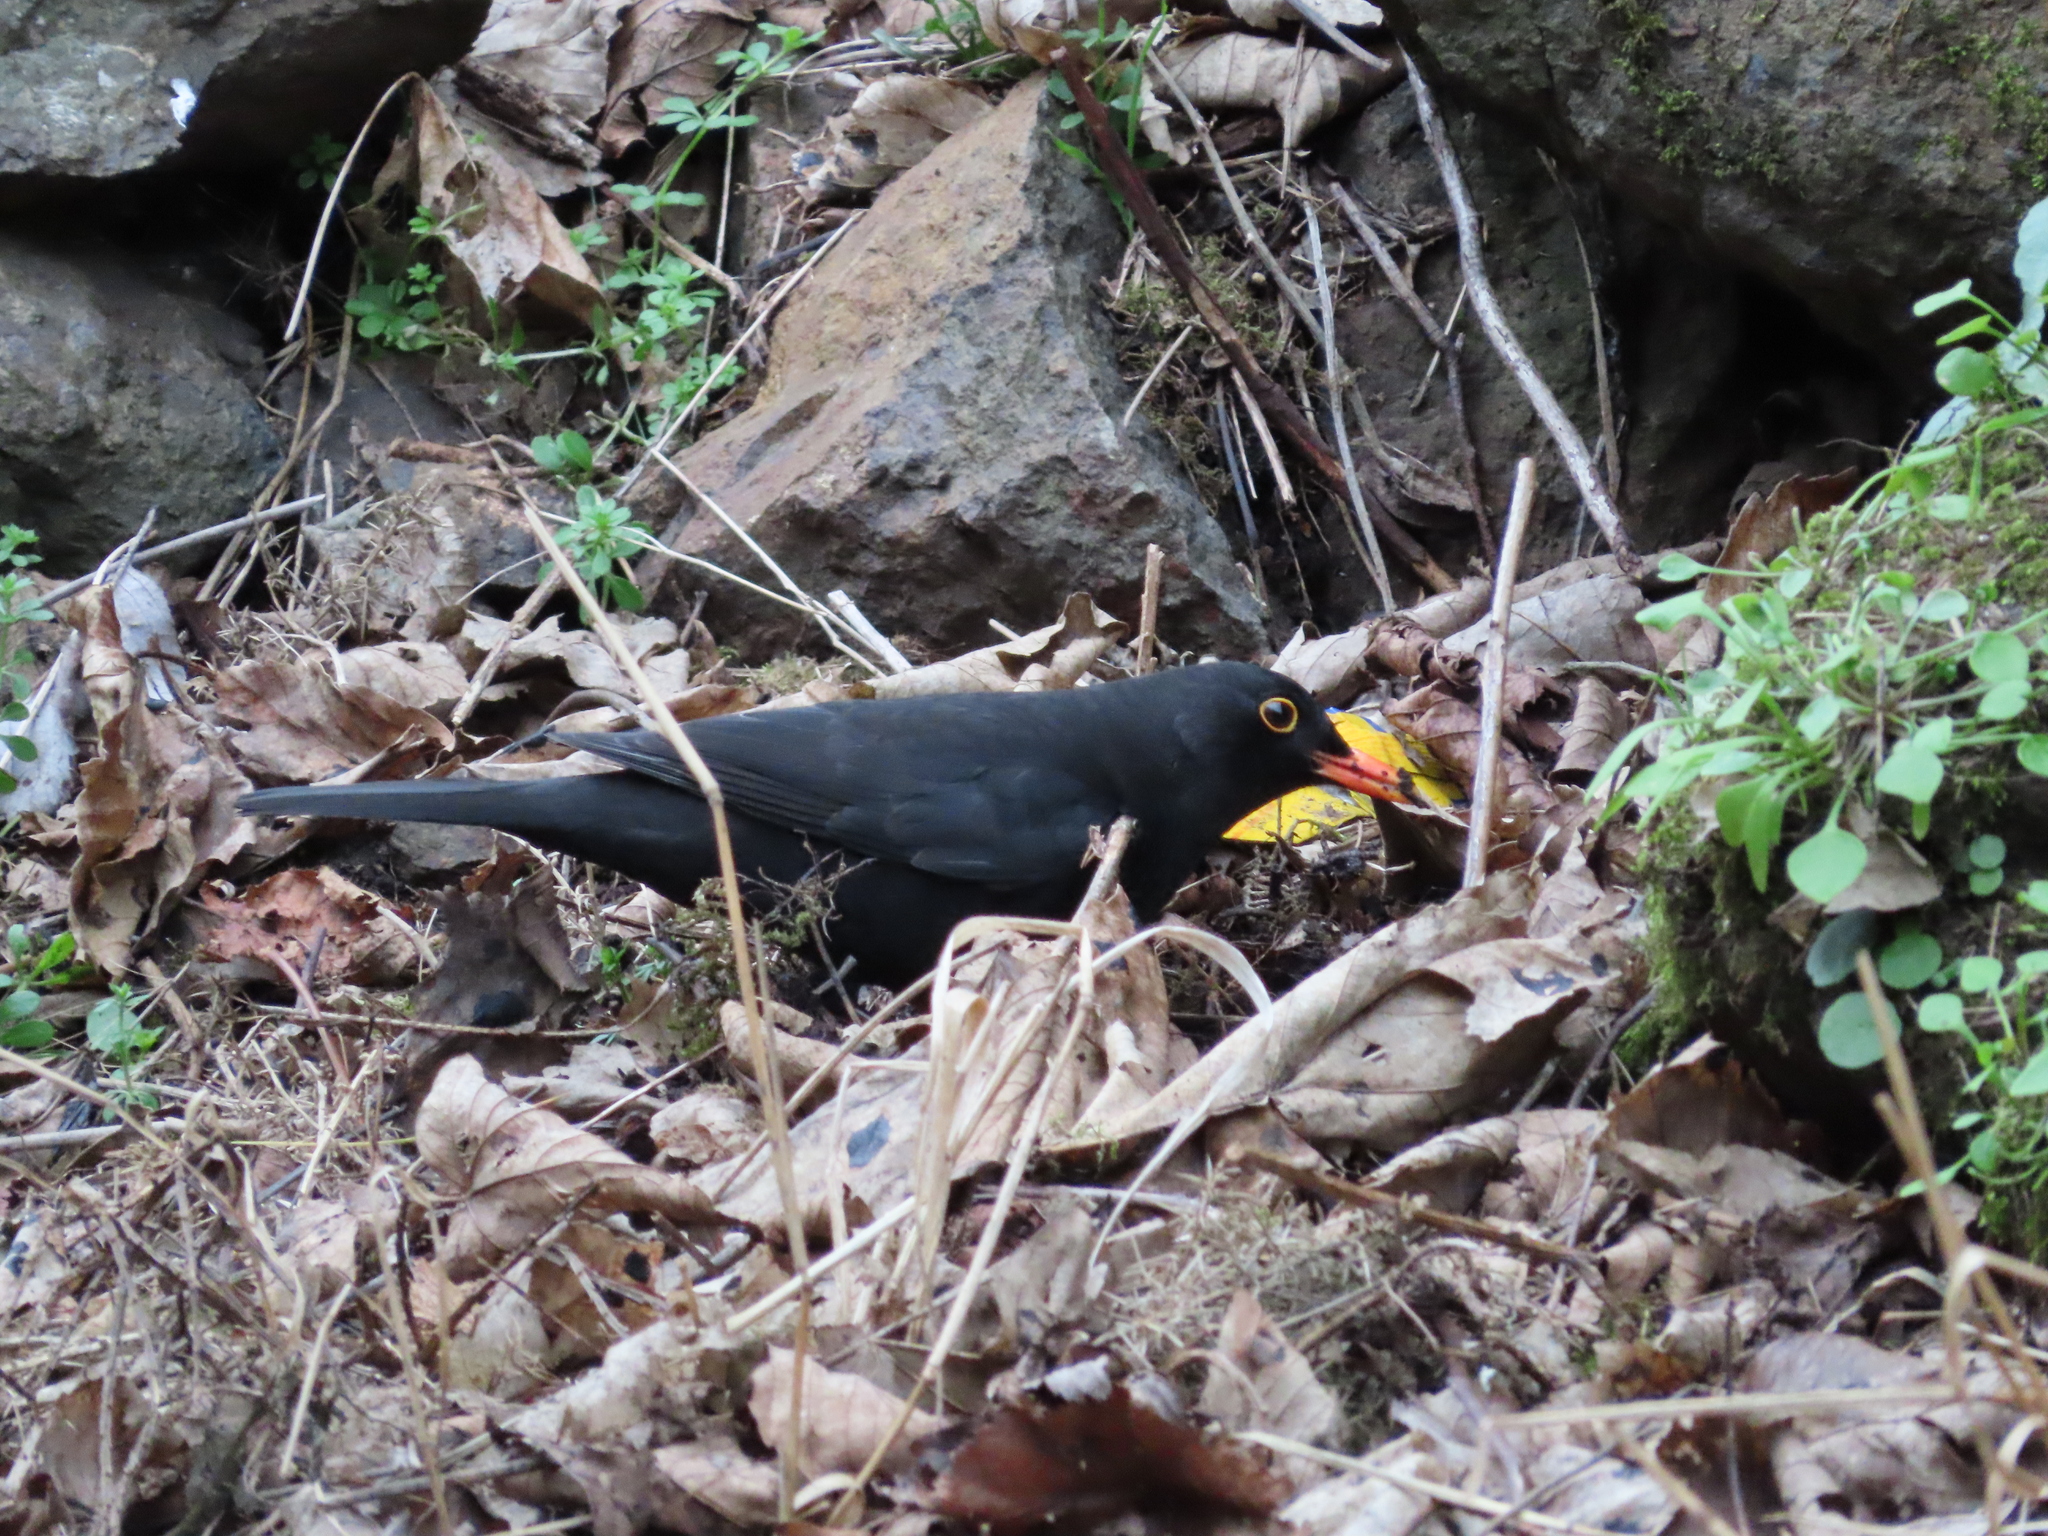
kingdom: Animalia
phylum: Chordata
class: Aves
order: Passeriformes
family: Turdidae
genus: Turdus
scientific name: Turdus merula
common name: Common blackbird
